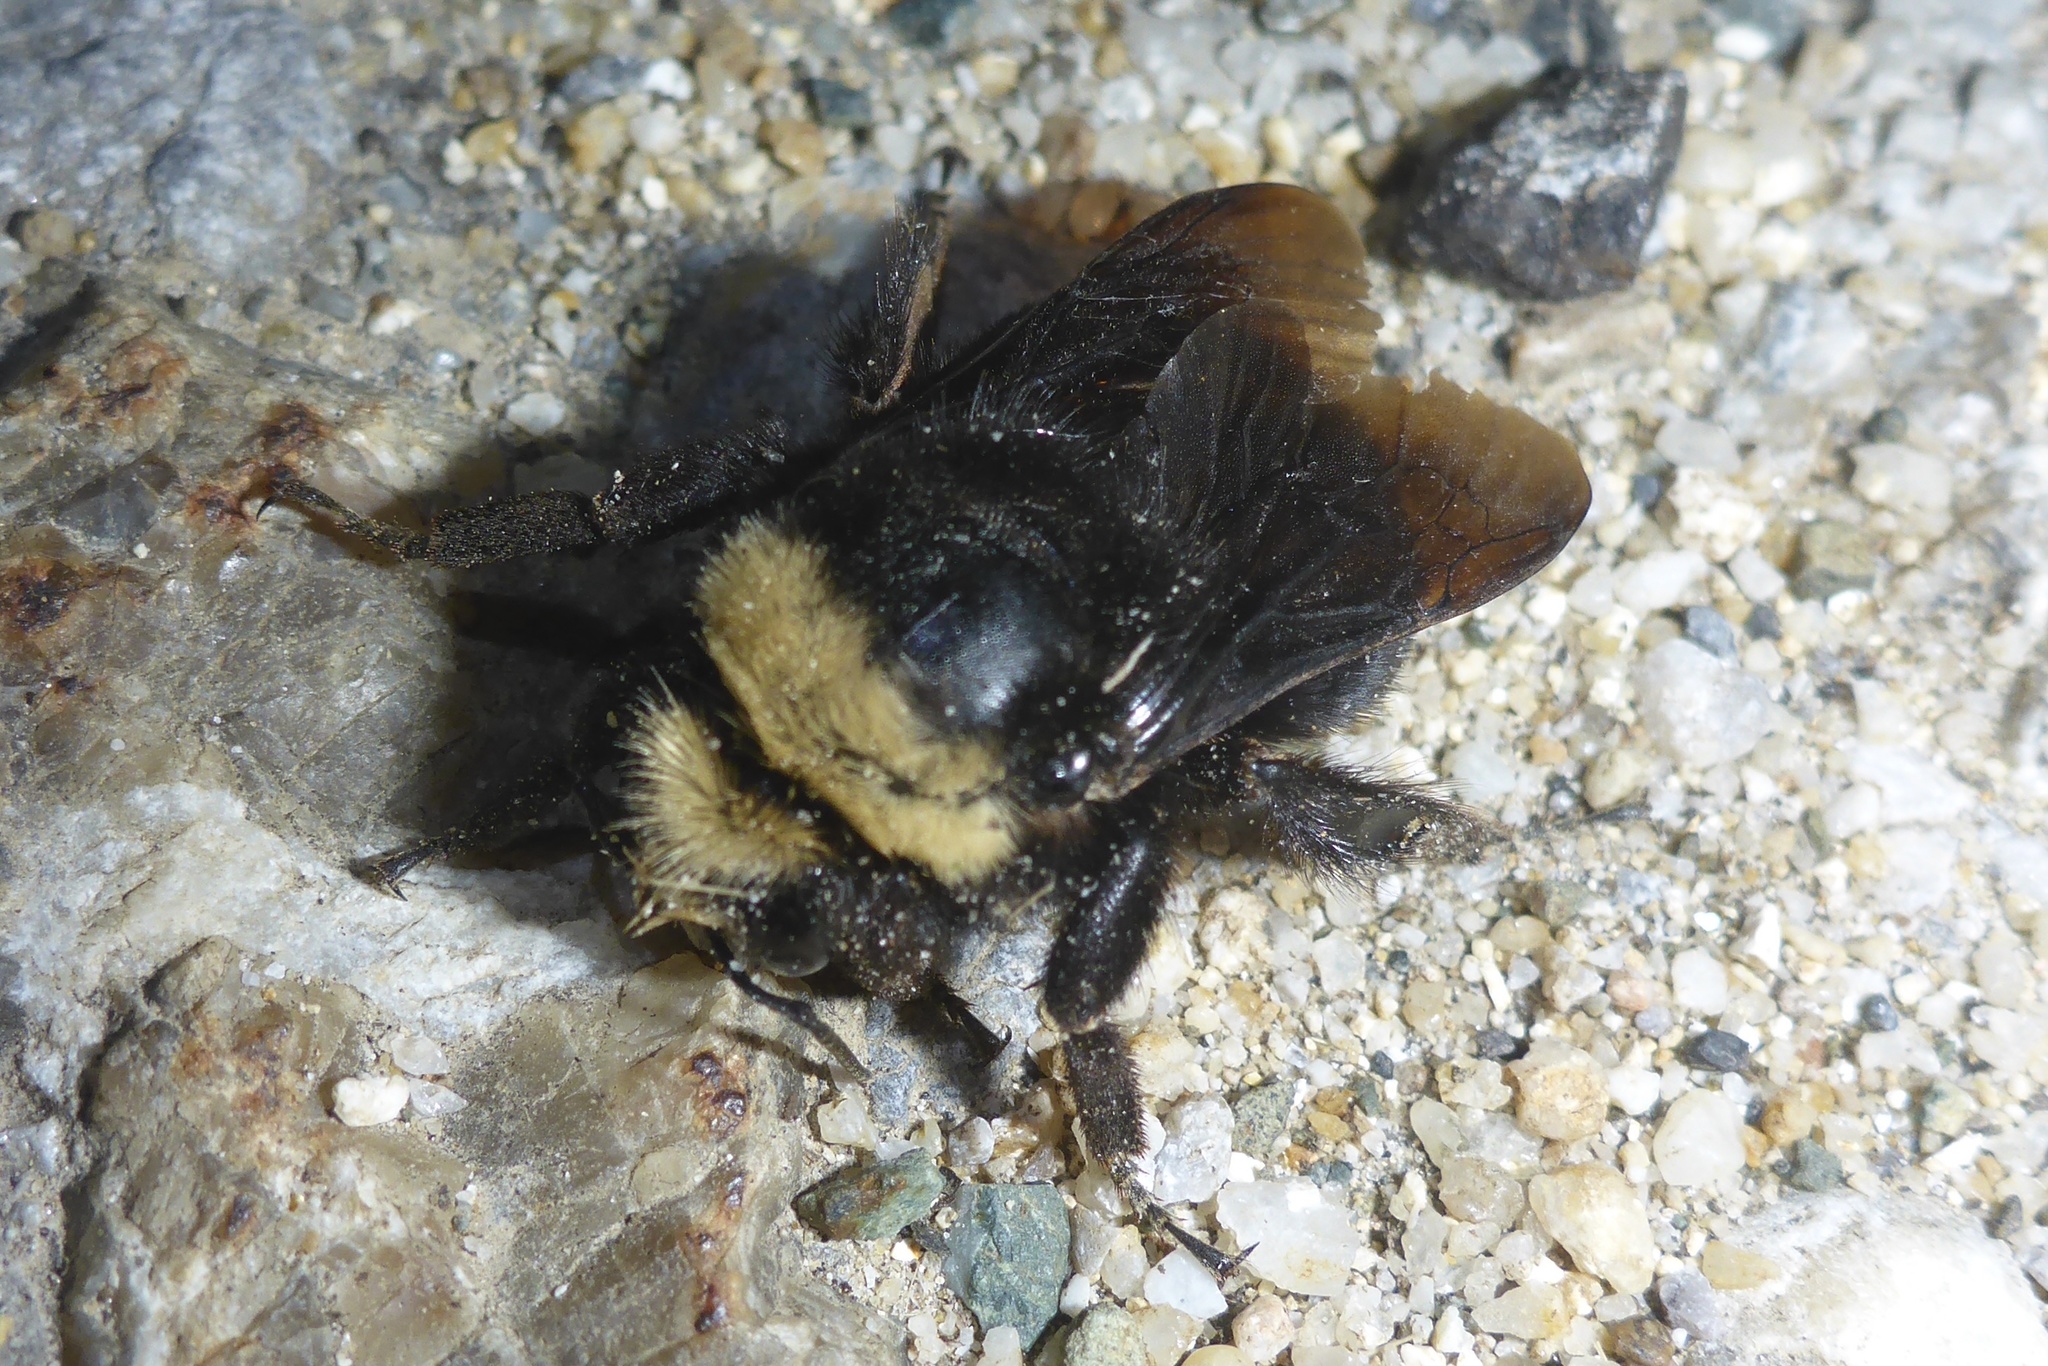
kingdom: Animalia
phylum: Arthropoda
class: Insecta
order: Hymenoptera
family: Apidae
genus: Pyrobombus
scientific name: Pyrobombus
